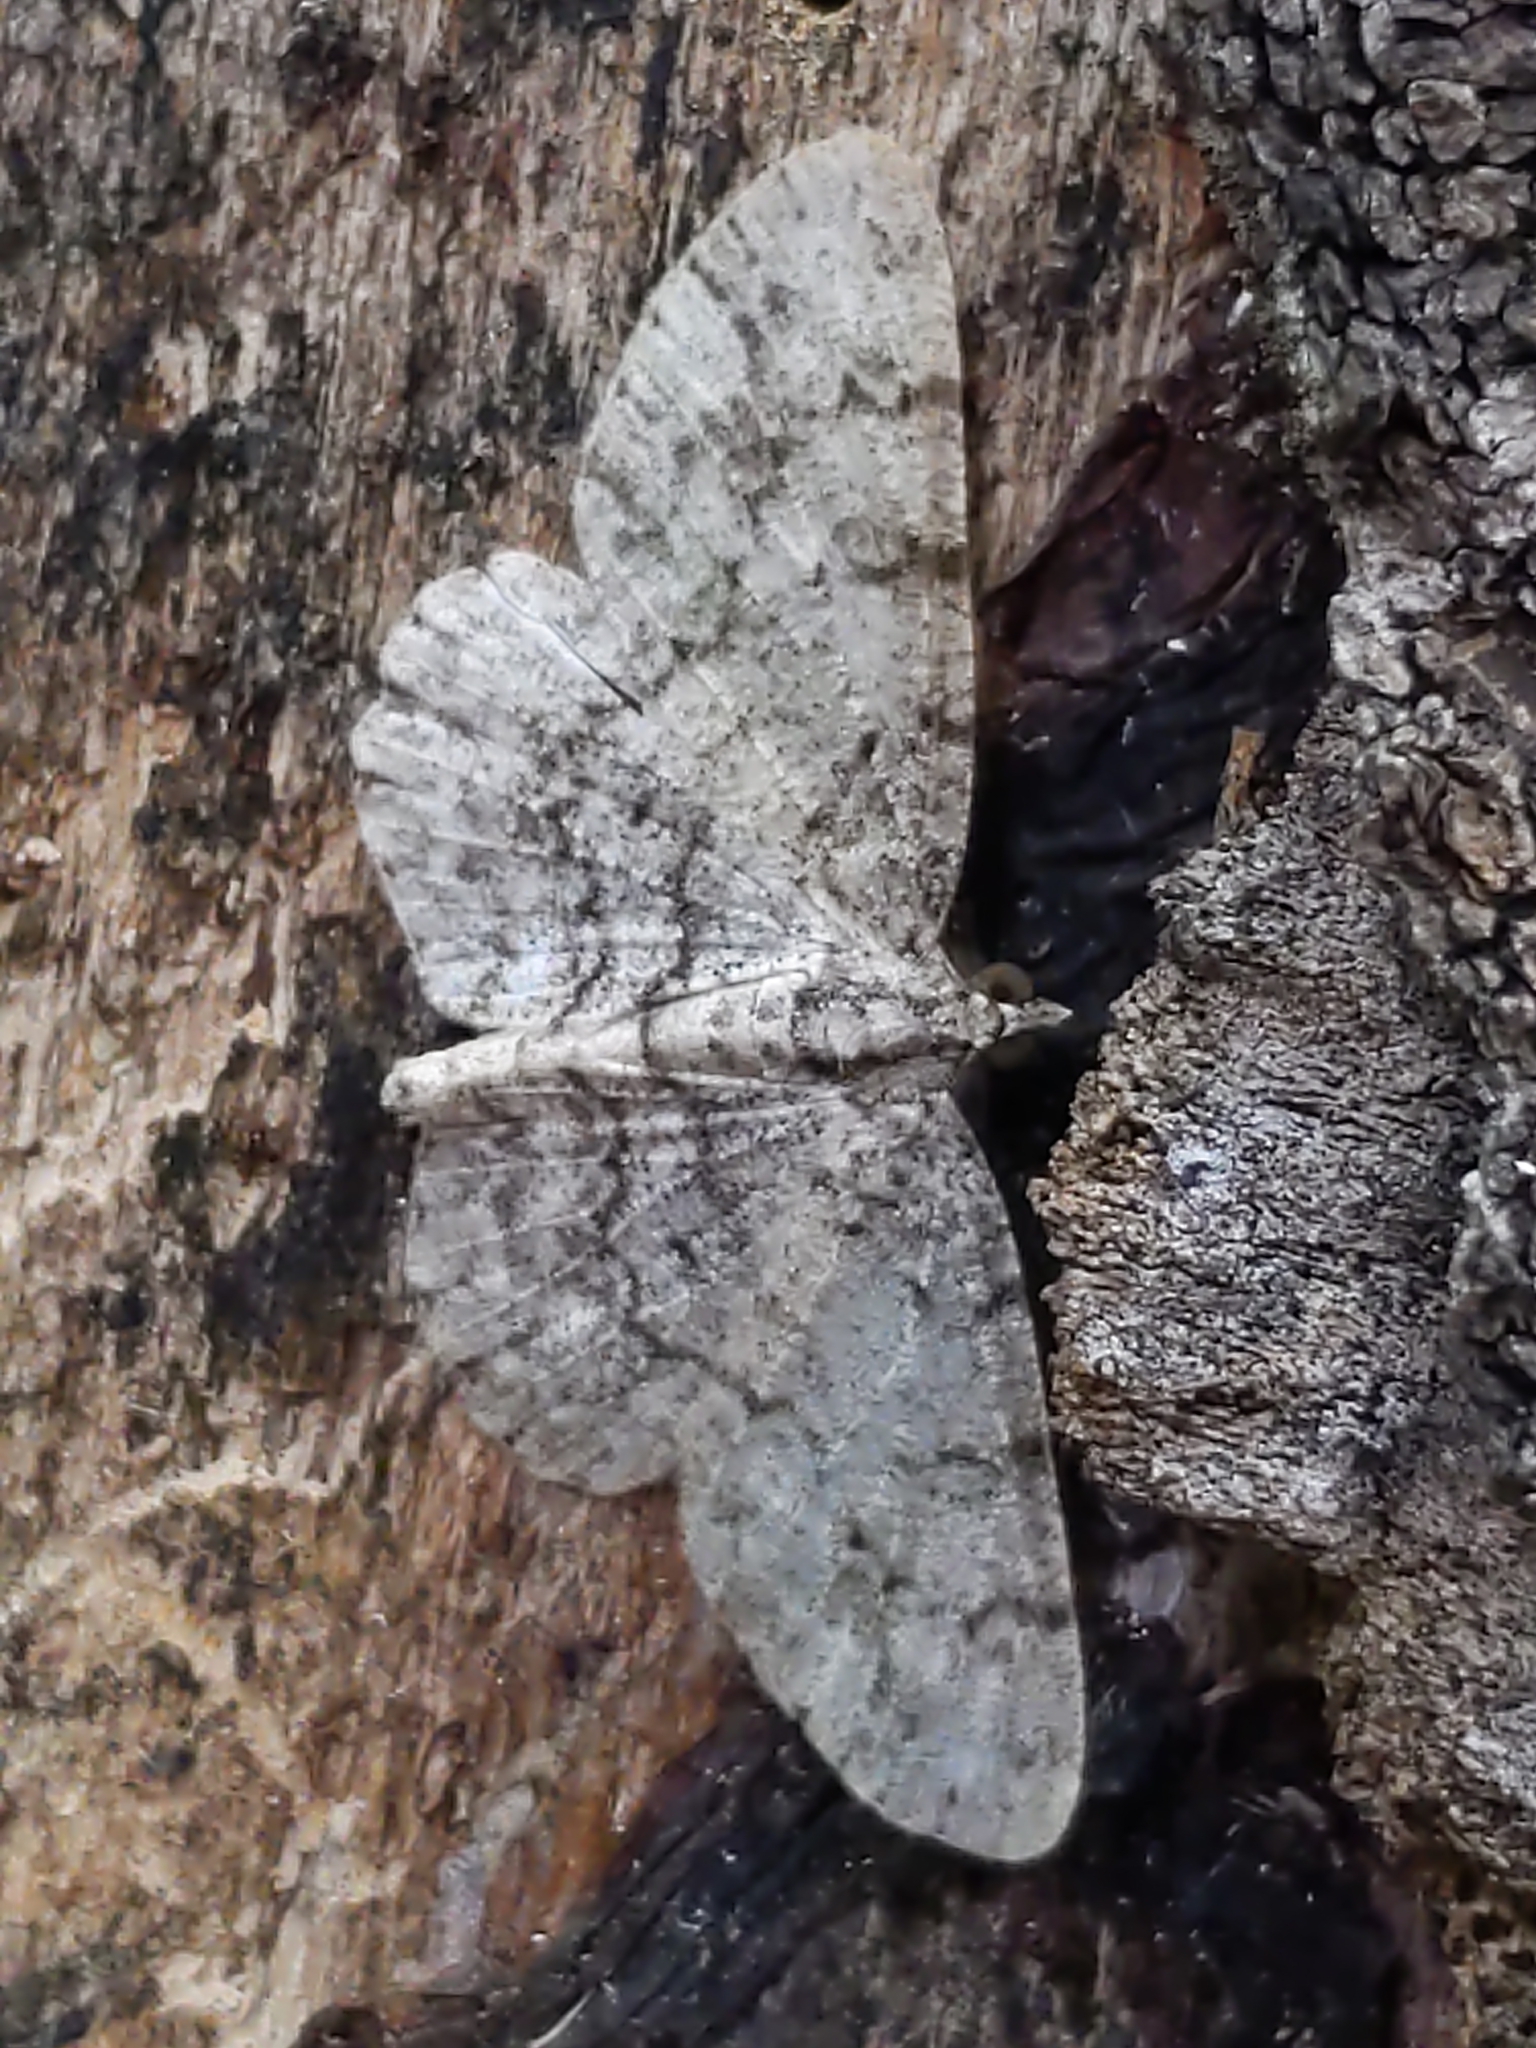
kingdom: Animalia
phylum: Arthropoda
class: Insecta
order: Lepidoptera
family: Geometridae
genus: Protoboarmia
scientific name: Protoboarmia porcelaria
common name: Porcelain gray
